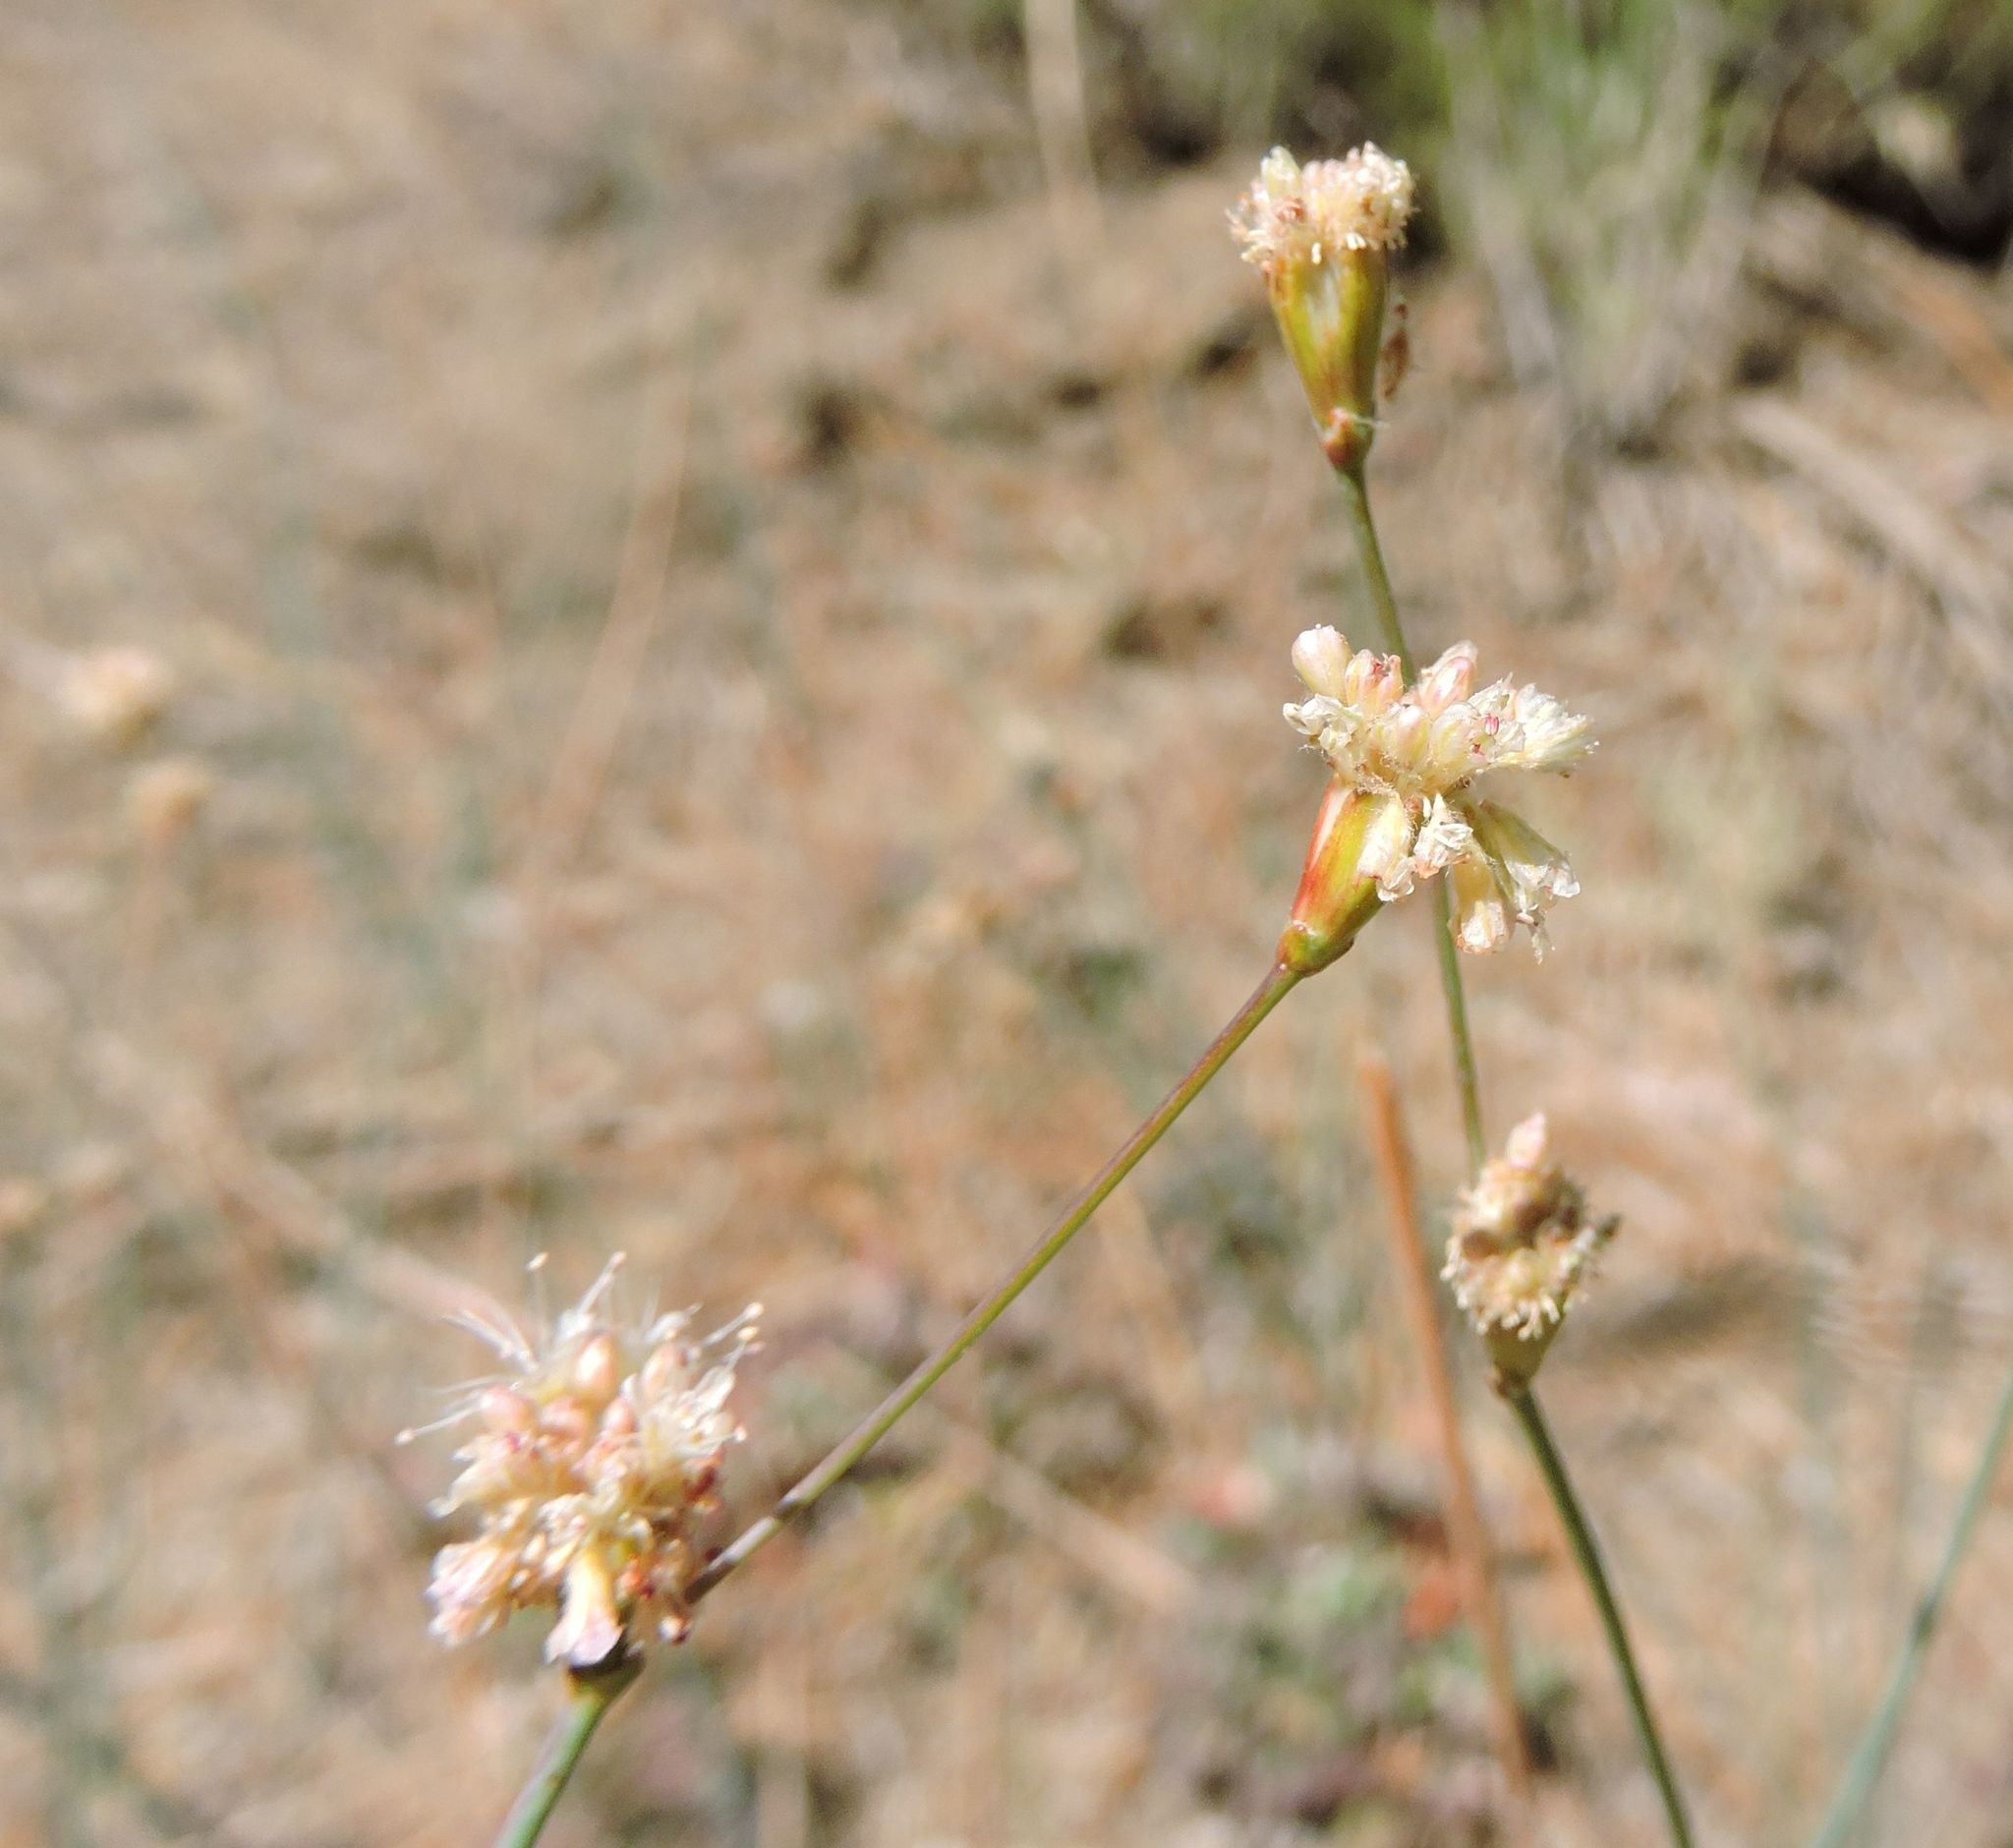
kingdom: Plantae
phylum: Tracheophyta
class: Magnoliopsida
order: Caryophyllales
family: Polygonaceae
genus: Eriogonum
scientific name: Eriogonum nudum
